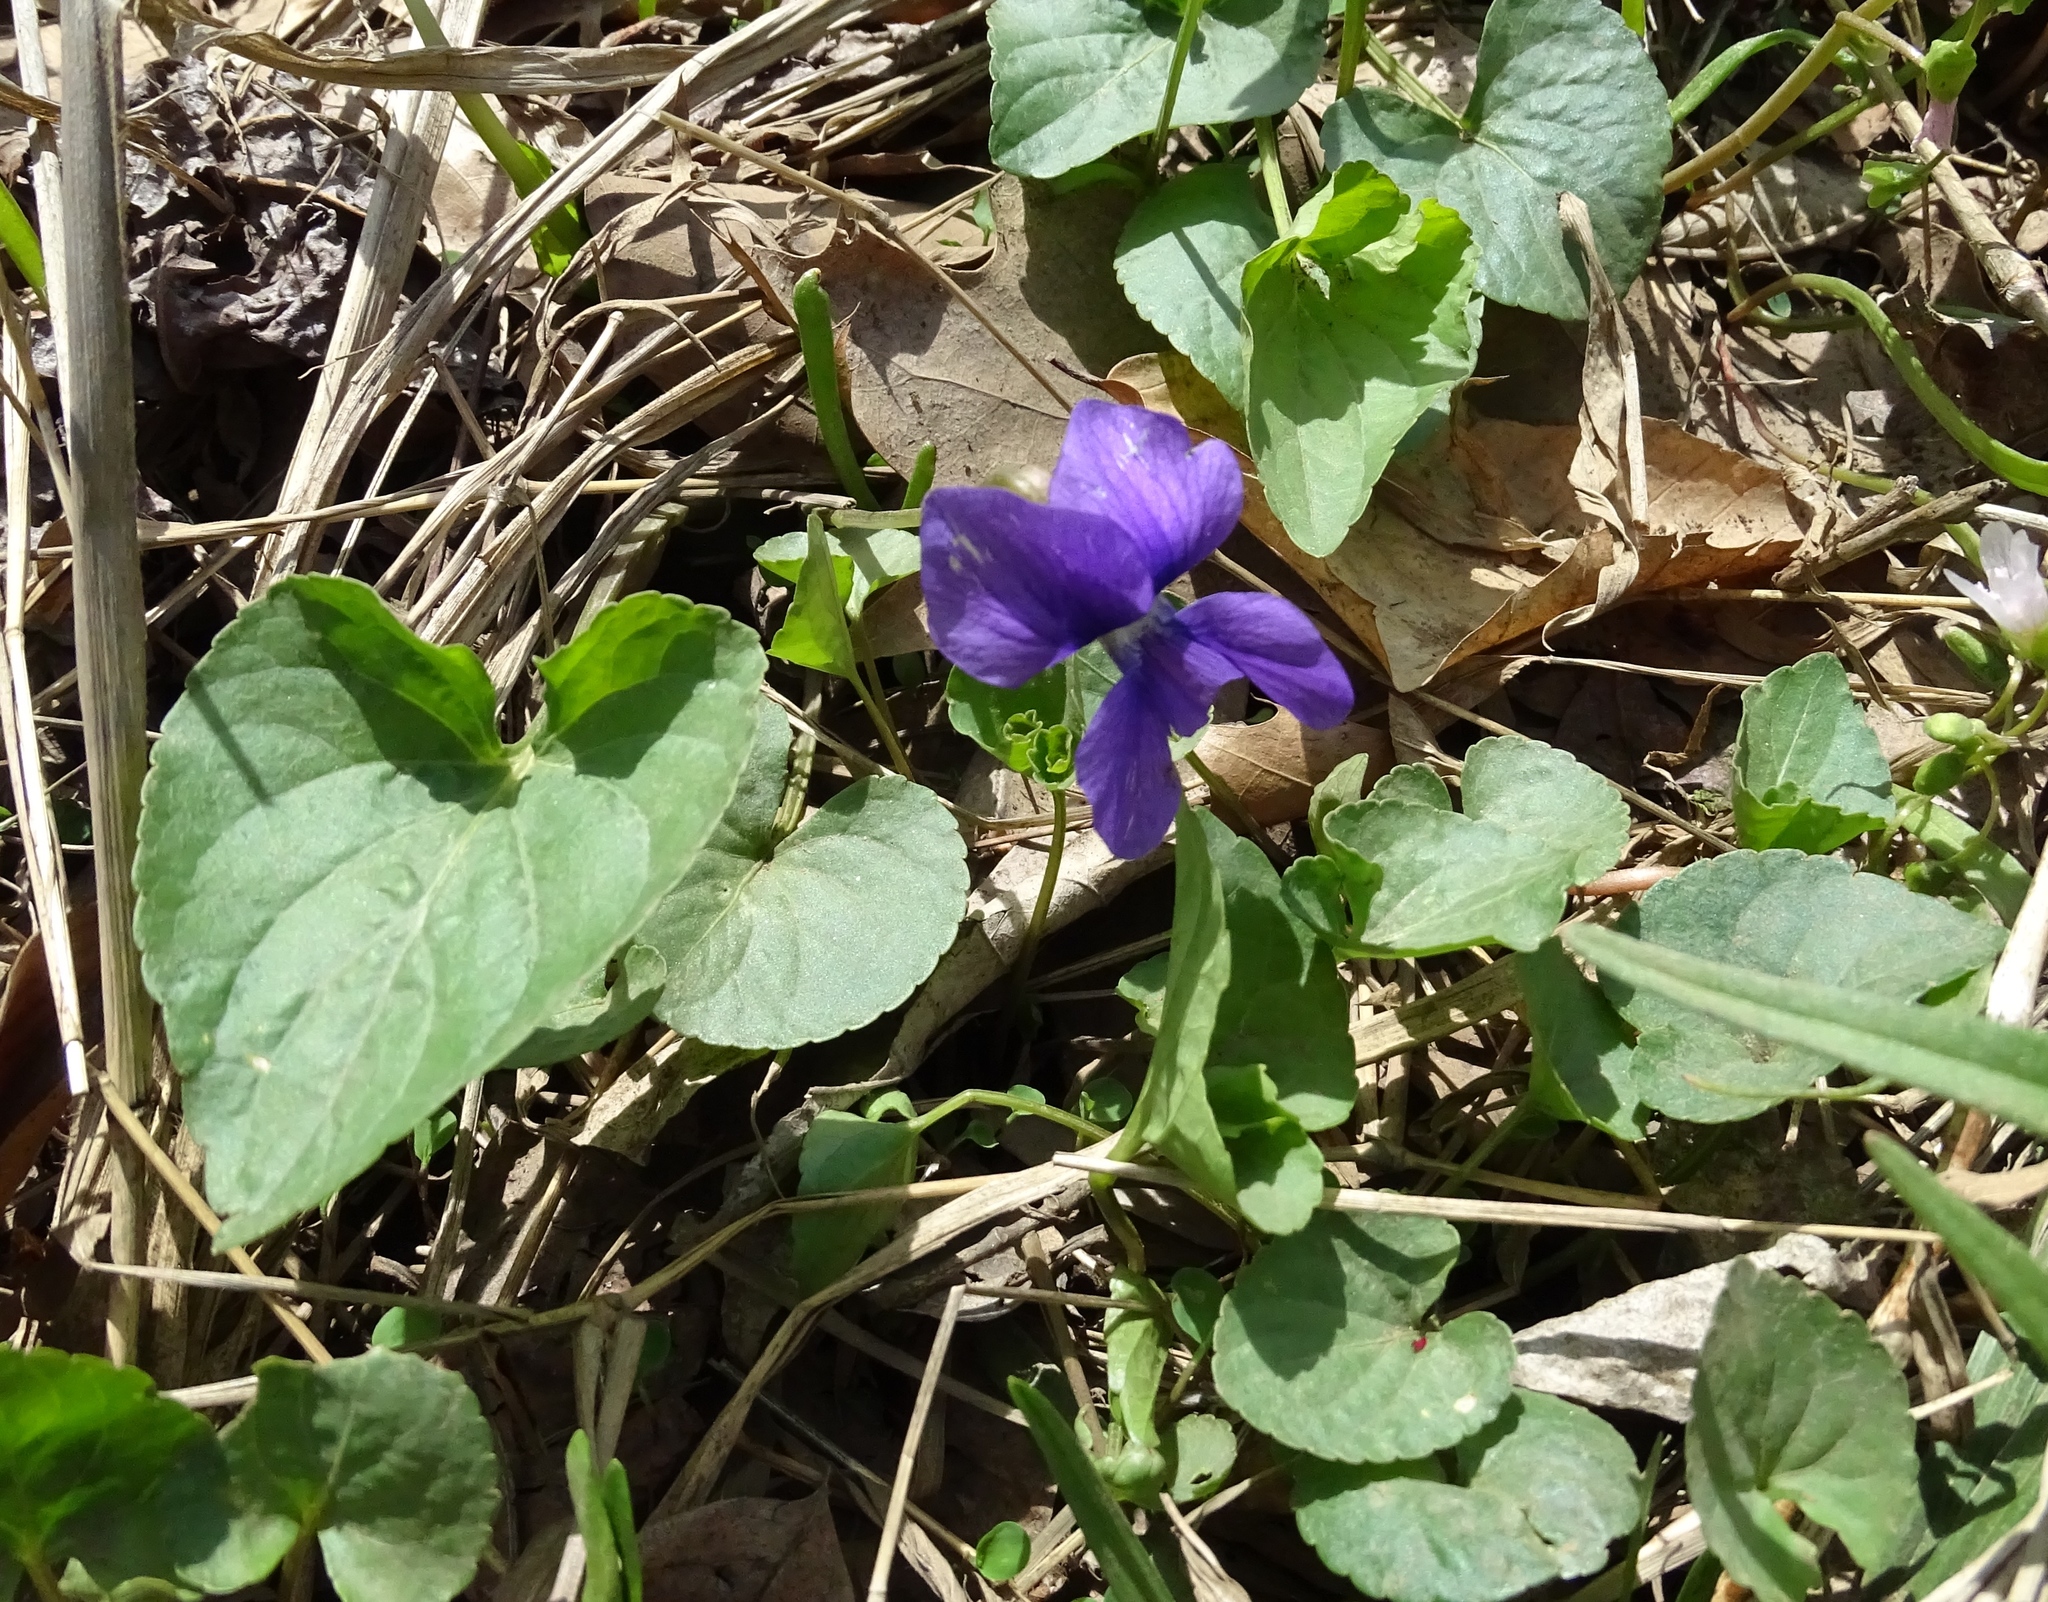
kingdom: Plantae
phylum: Tracheophyta
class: Magnoliopsida
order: Malpighiales
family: Violaceae
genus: Viola
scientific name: Viola sororia
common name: Dooryard violet
